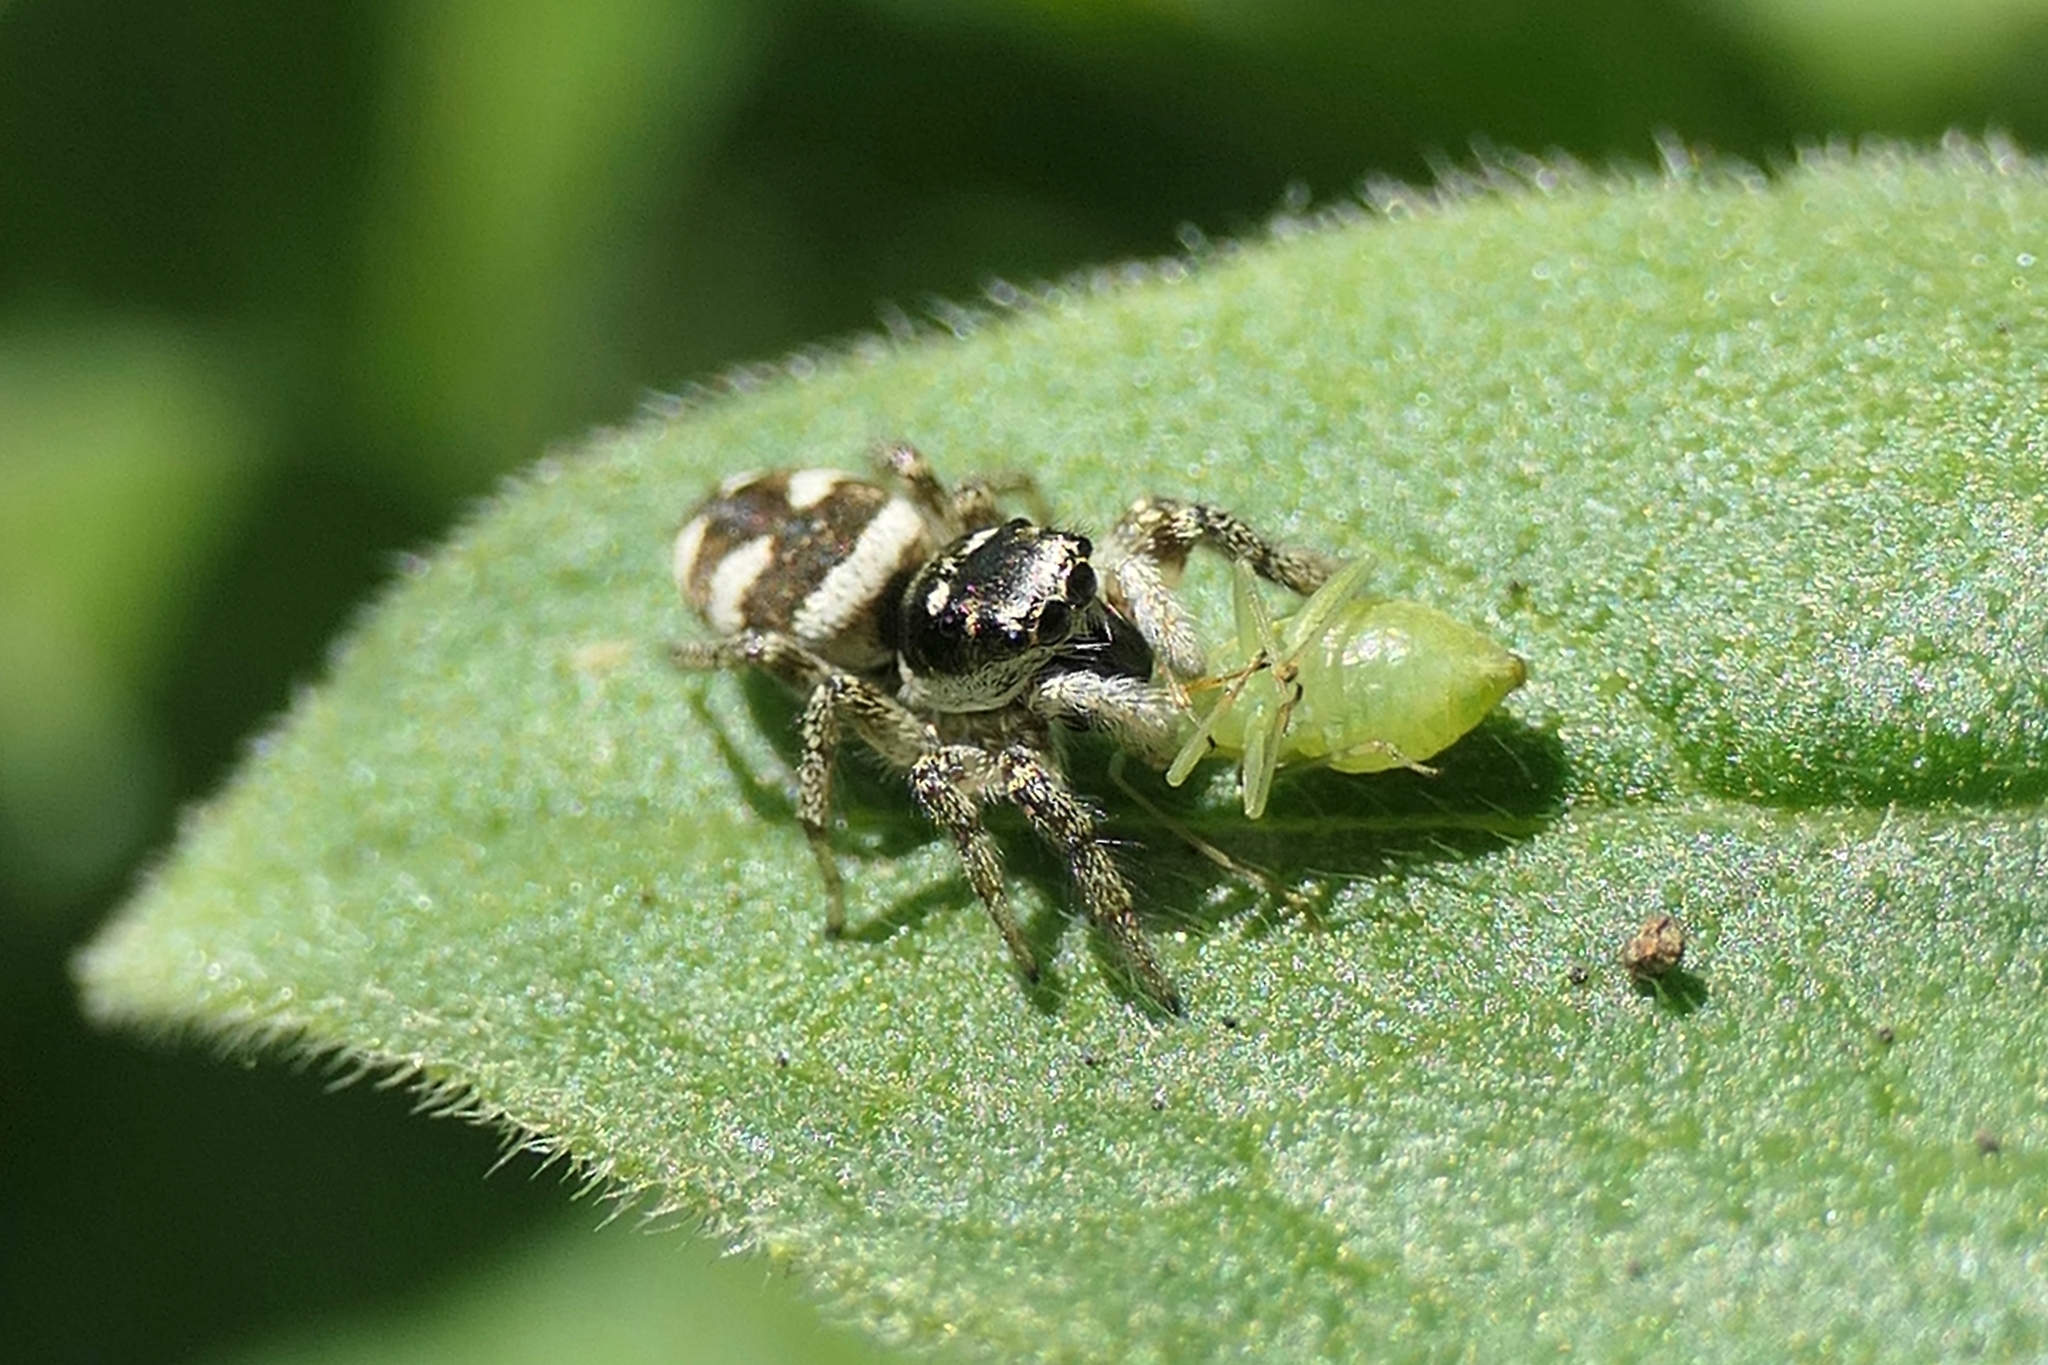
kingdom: Animalia
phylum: Arthropoda
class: Insecta
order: Hemiptera
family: Aphrophoridae
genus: Philaenus
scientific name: Philaenus spumarius
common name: Meadow spittlebug
